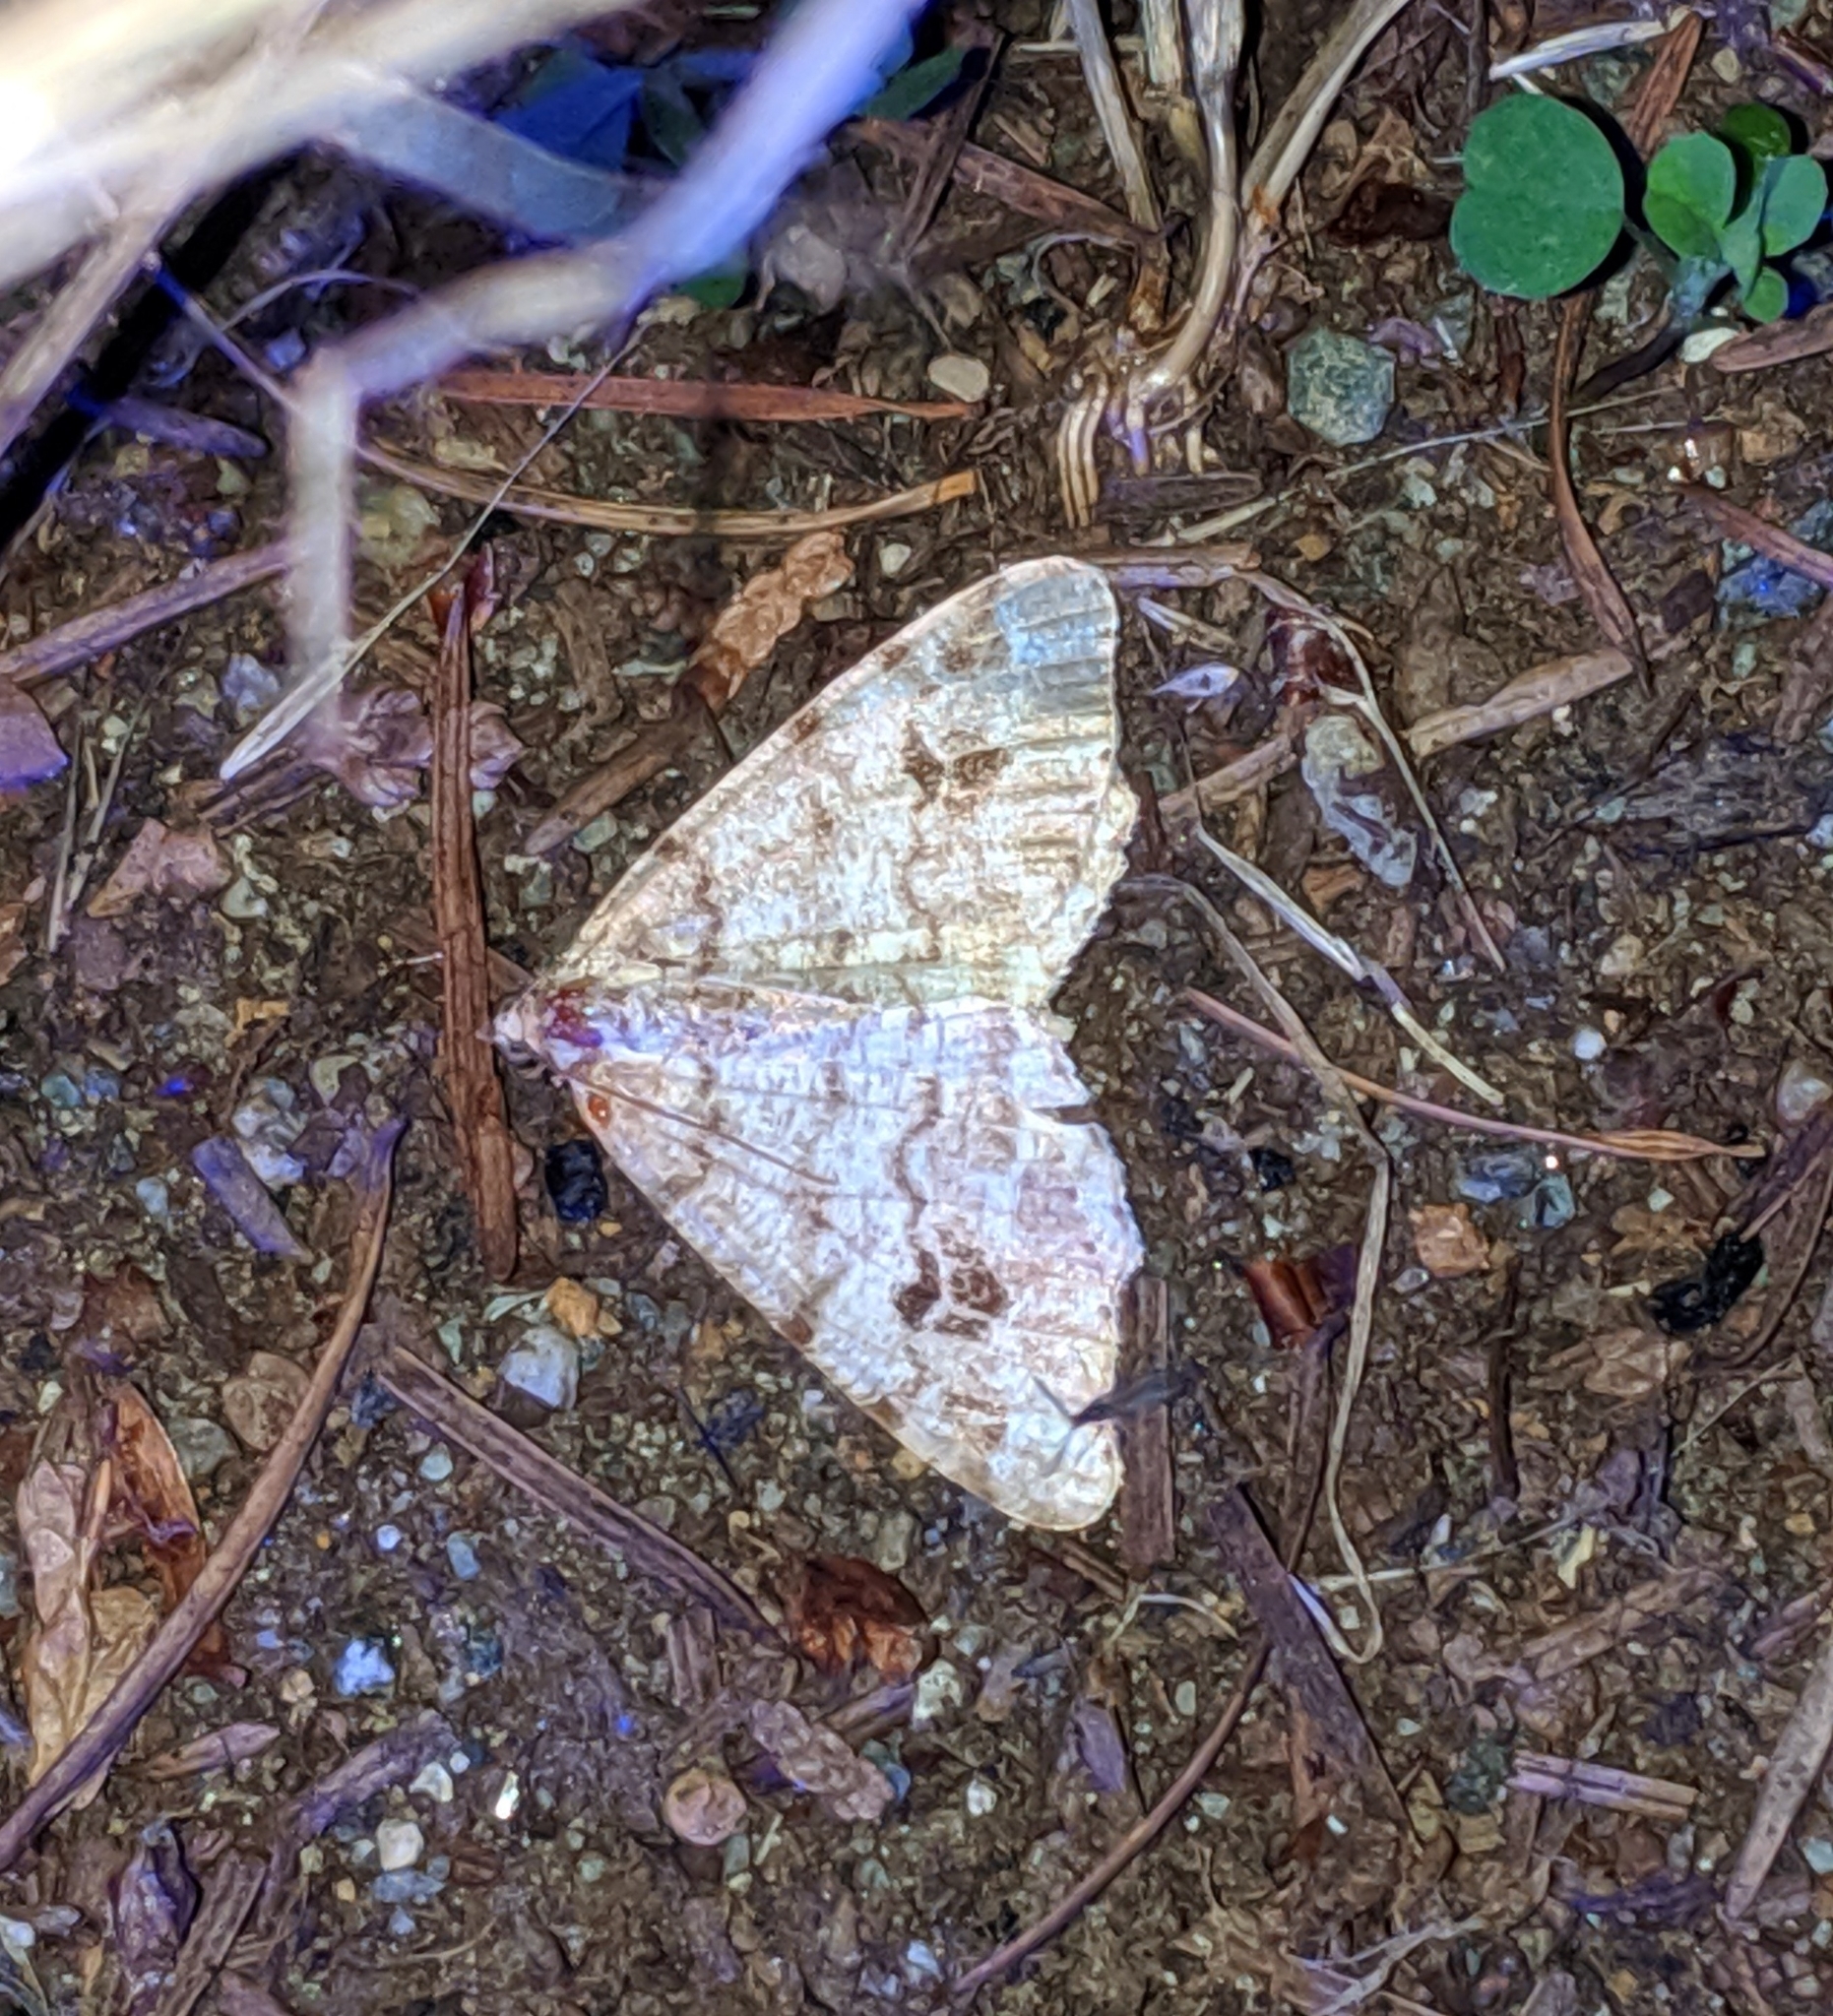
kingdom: Animalia
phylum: Arthropoda
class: Insecta
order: Lepidoptera
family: Geometridae
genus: Macaria
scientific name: Macaria signaria
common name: Dusky peacock
